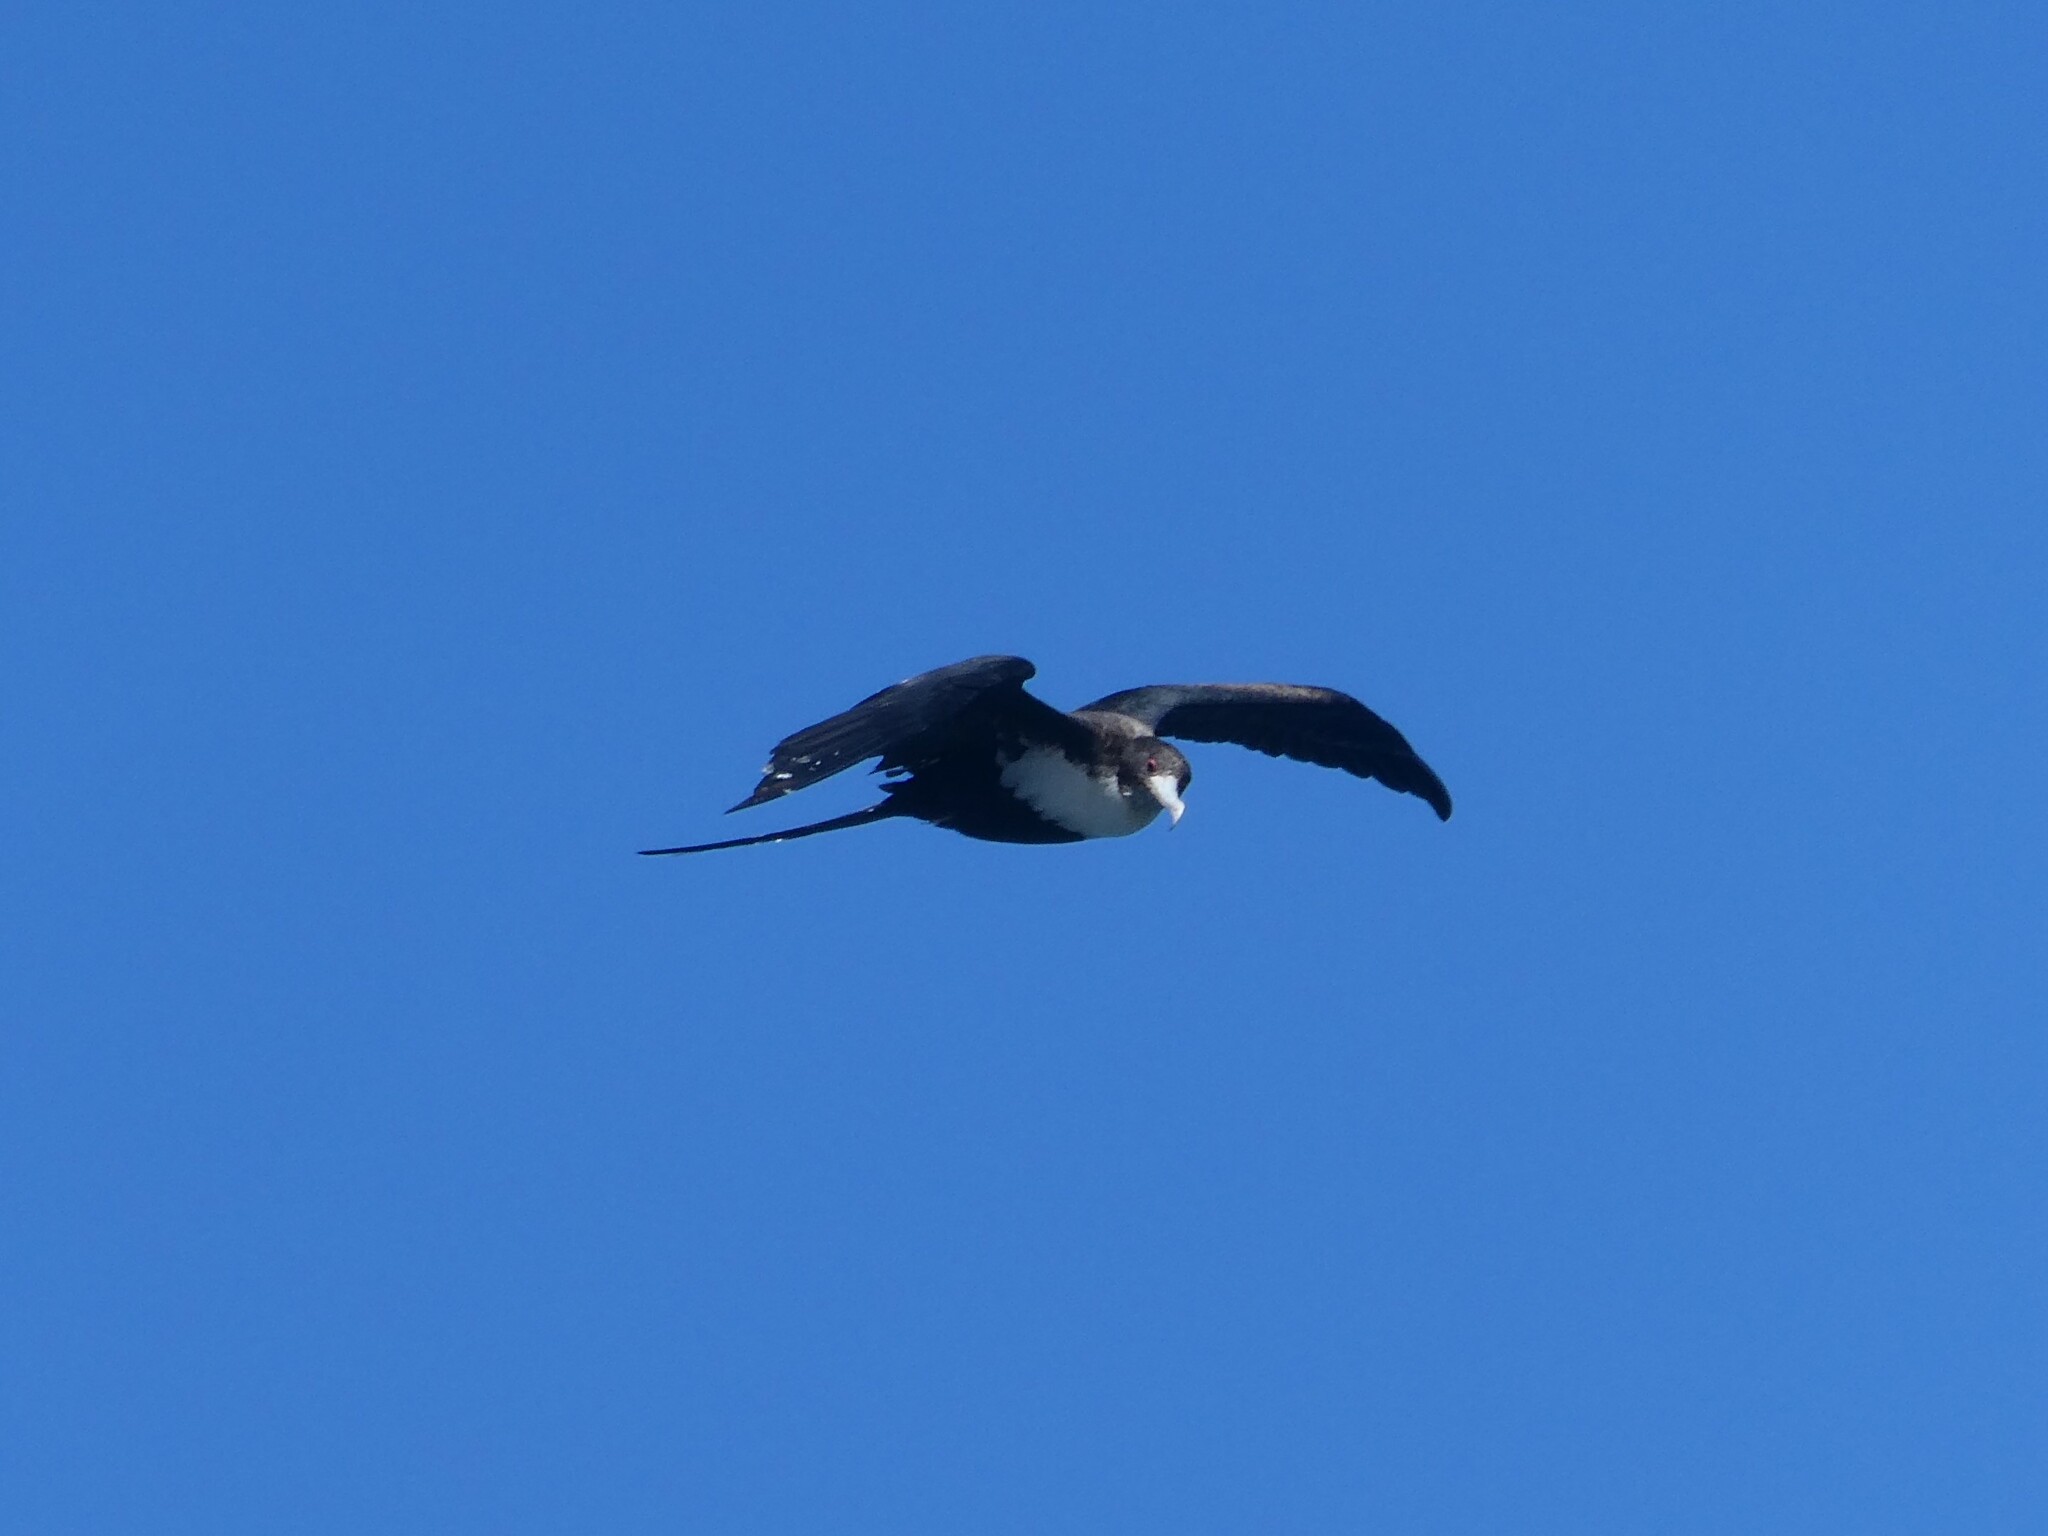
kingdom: Animalia
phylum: Chordata
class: Aves
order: Suliformes
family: Fregatidae
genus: Fregata
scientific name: Fregata minor
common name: Great frigatebird
